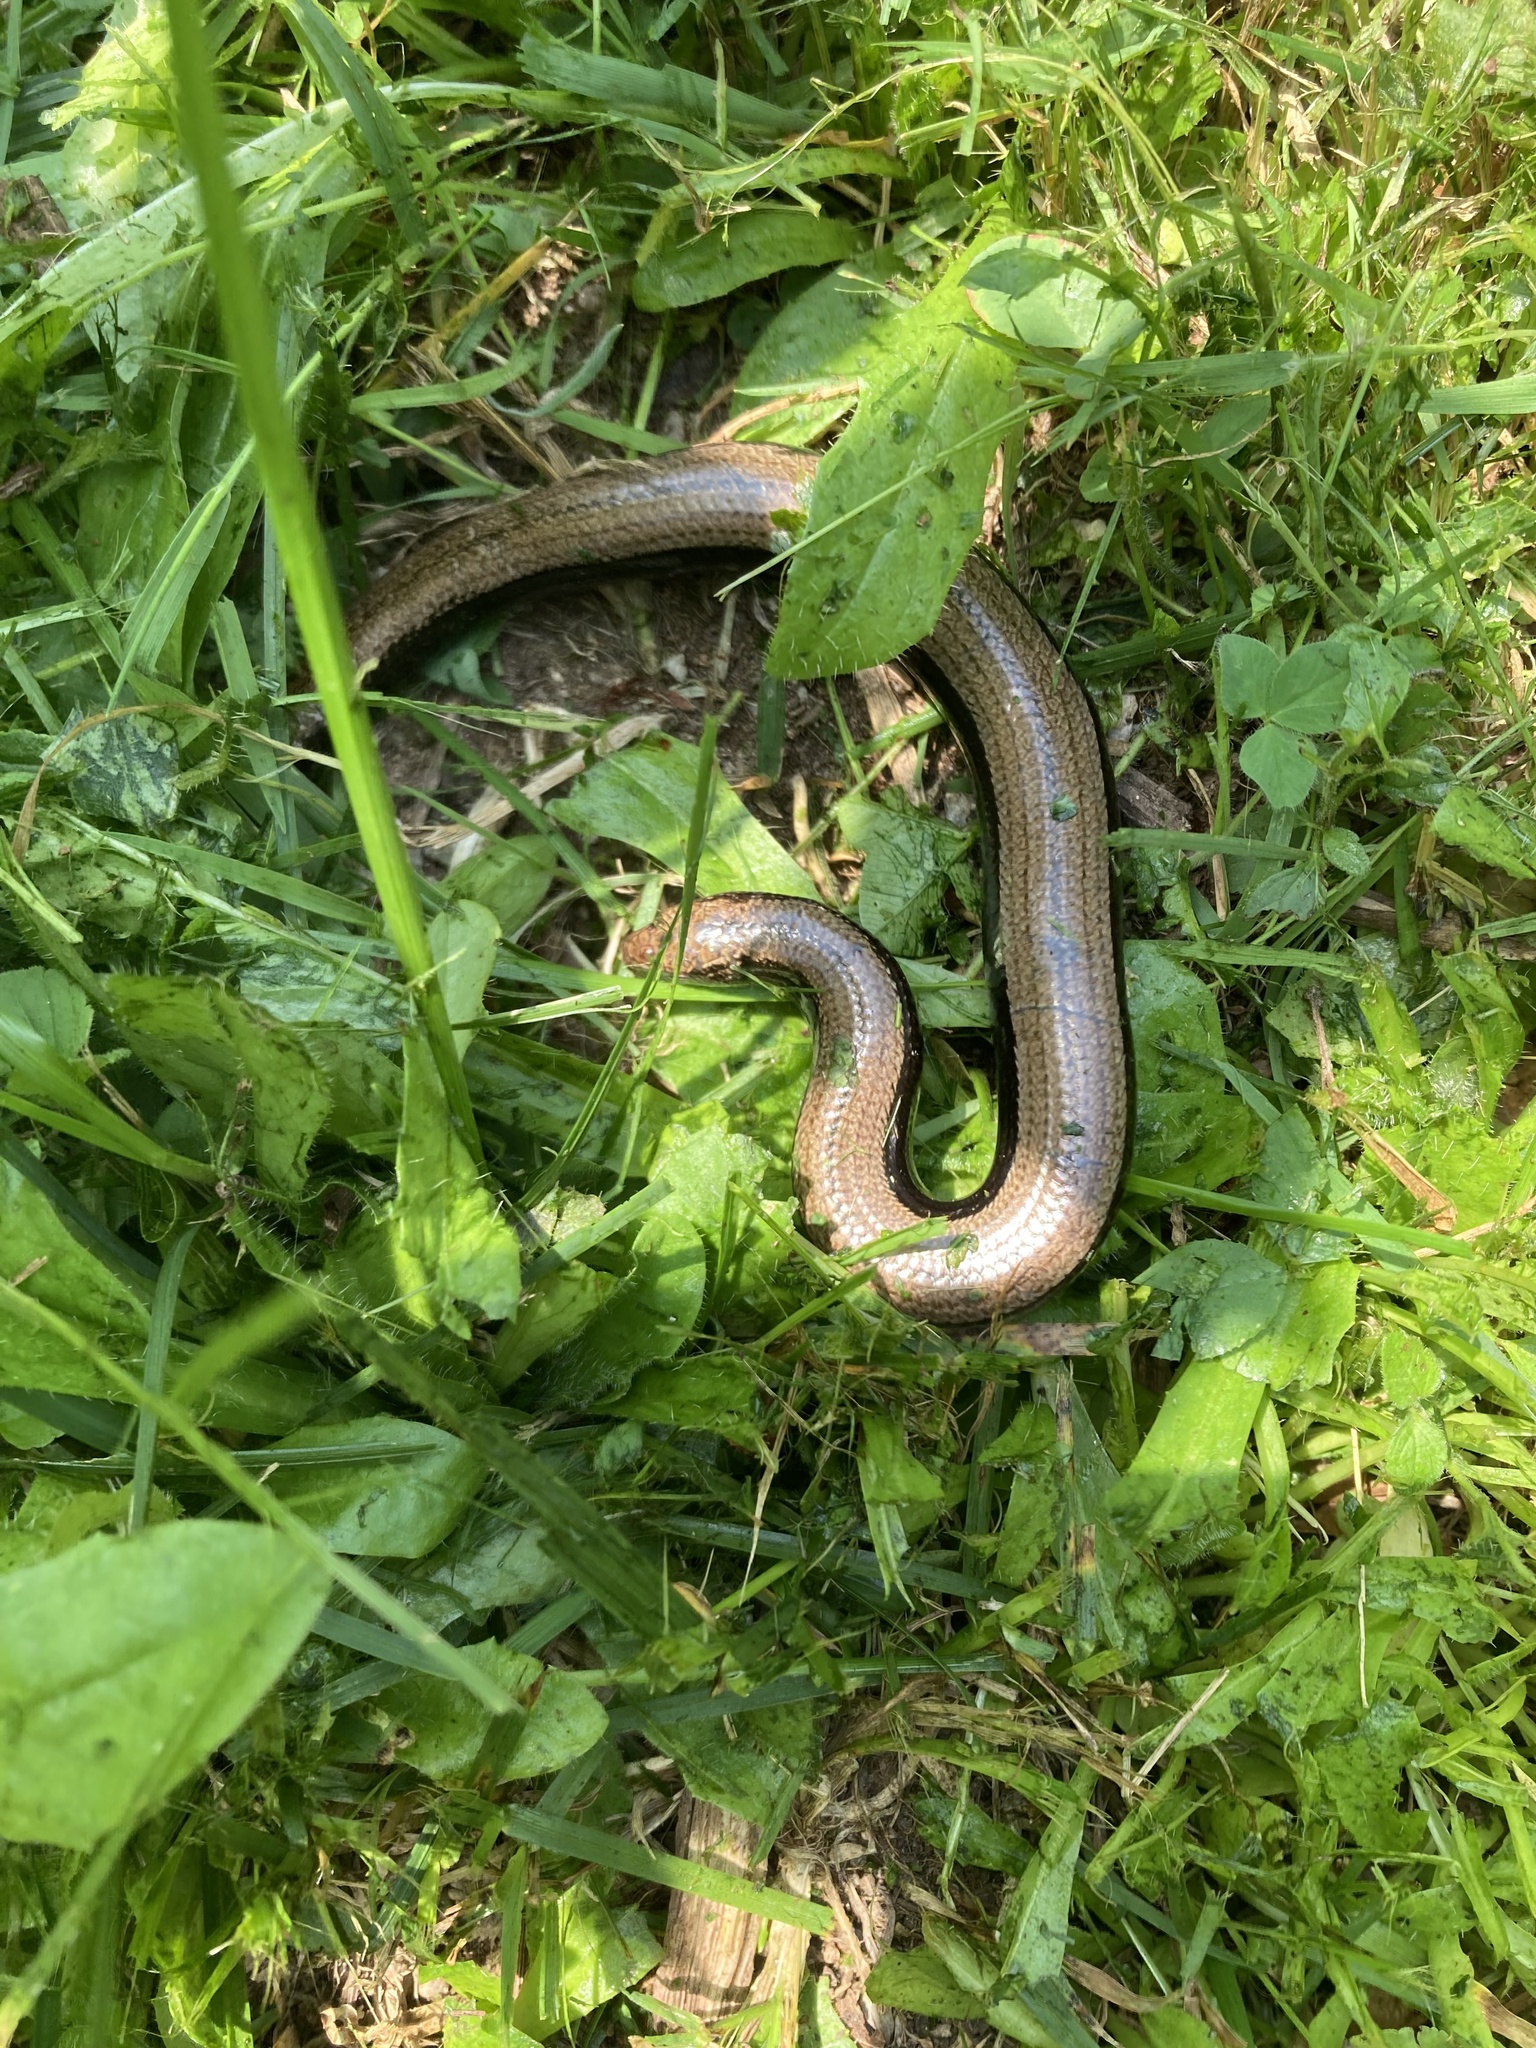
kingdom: Animalia
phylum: Chordata
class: Squamata
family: Anguidae
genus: Anguis
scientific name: Anguis fragilis
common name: Slow worm
